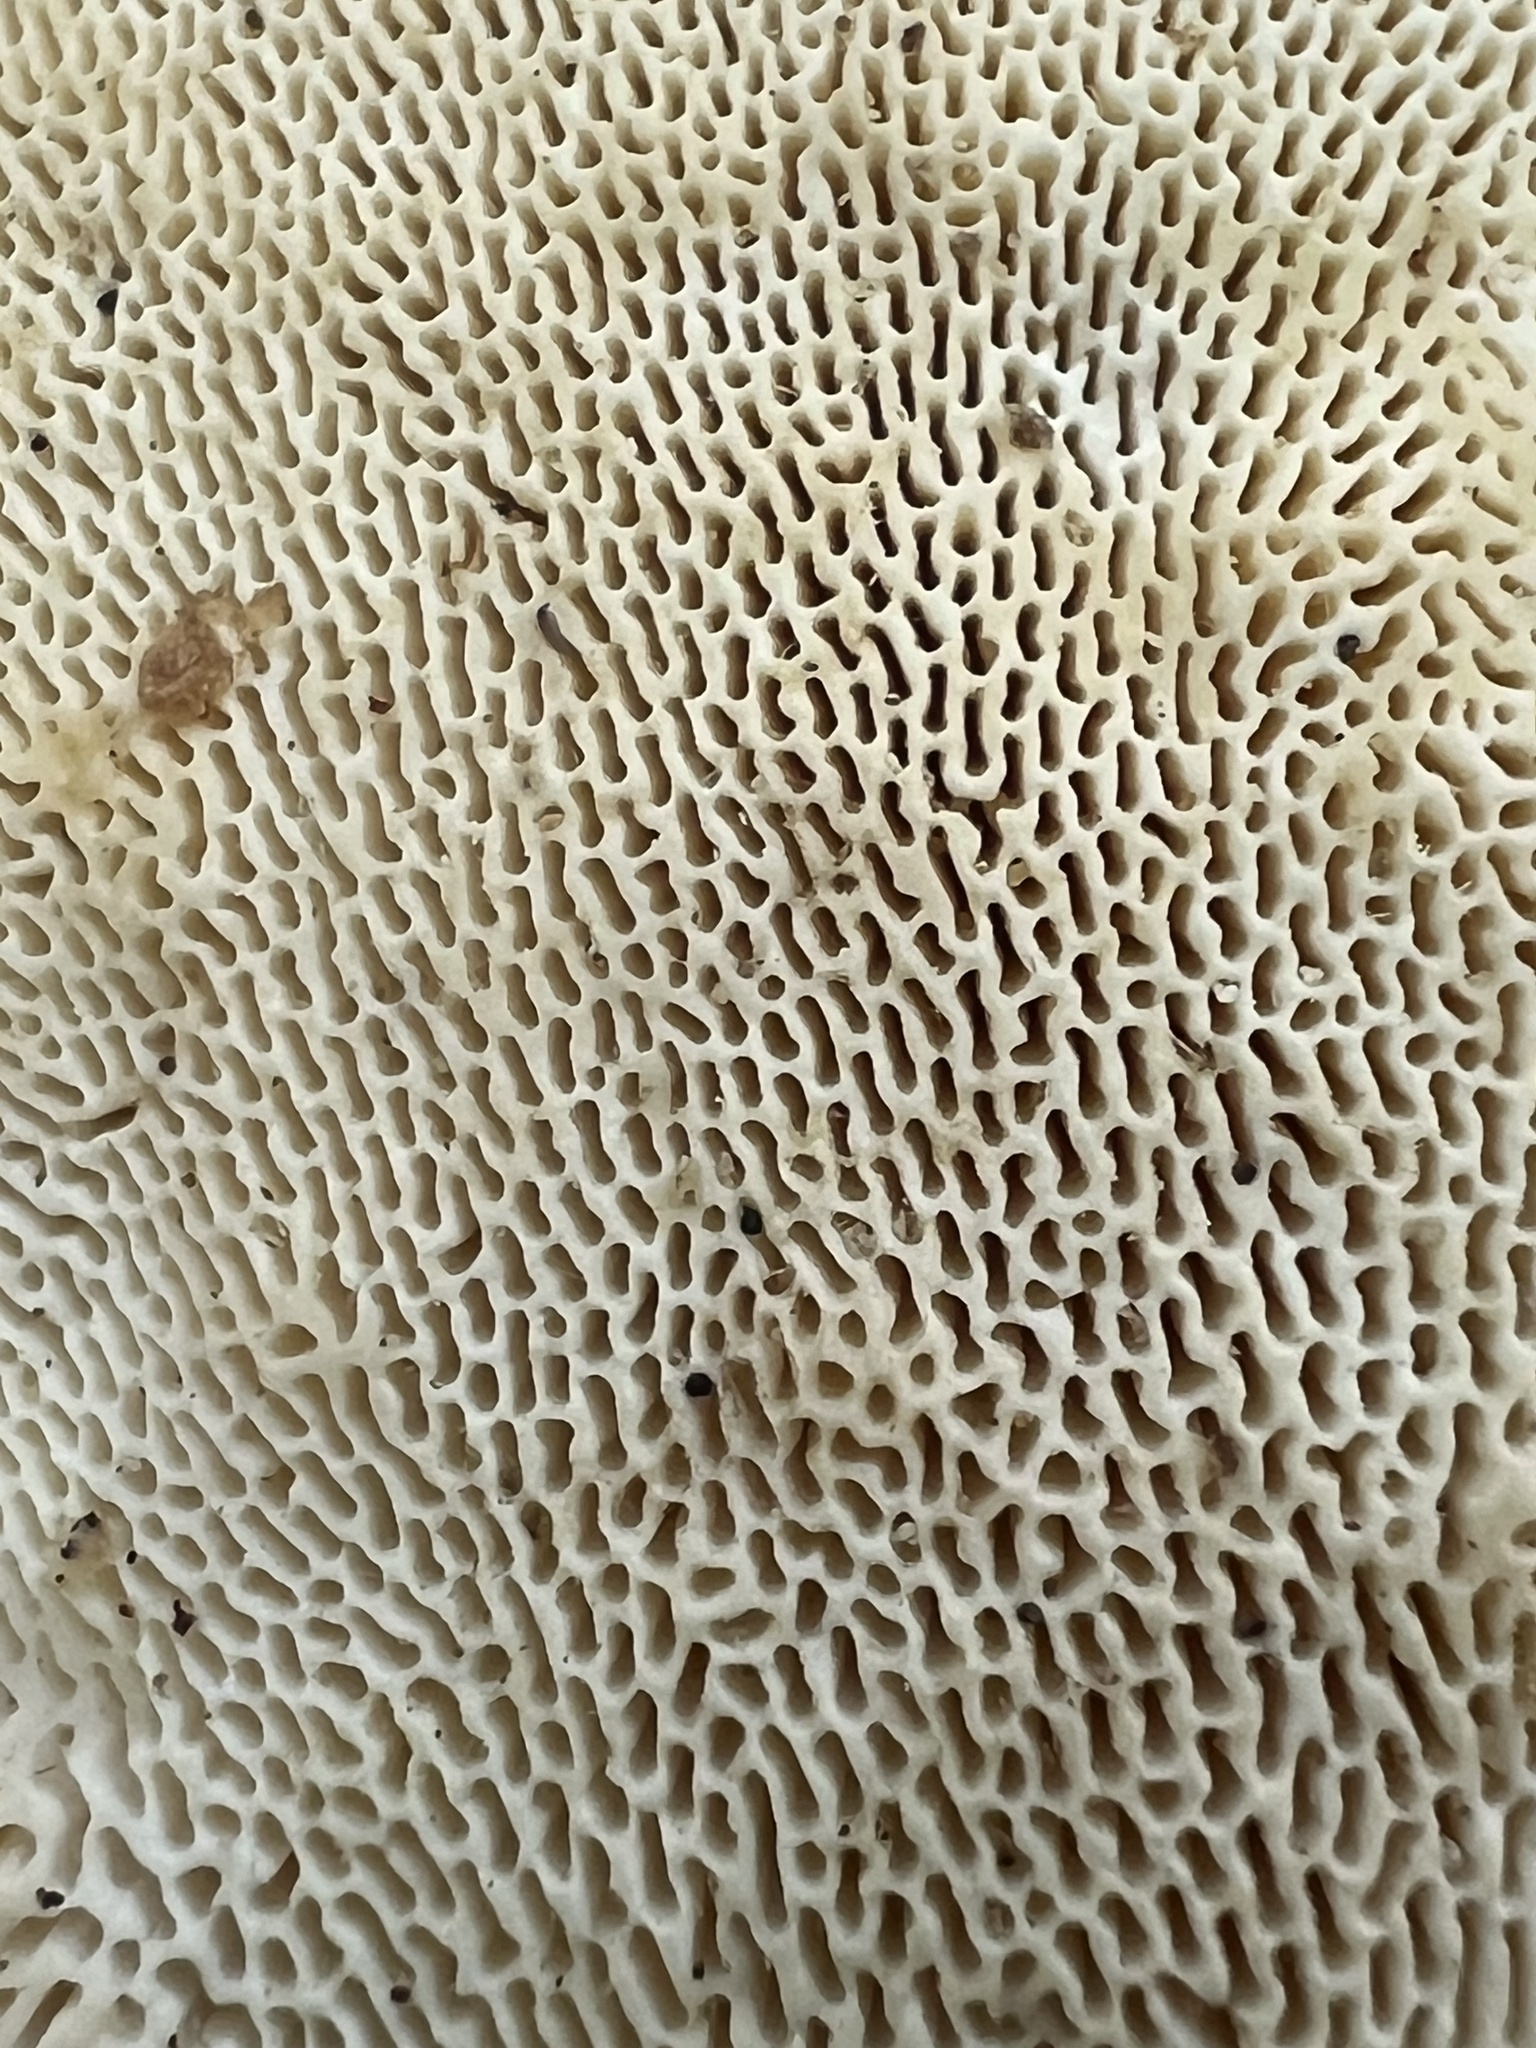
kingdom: Fungi
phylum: Basidiomycota
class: Agaricomycetes
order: Polyporales
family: Polyporaceae
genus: Trametes
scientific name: Trametes gibbosa
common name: Lumpy bracket
